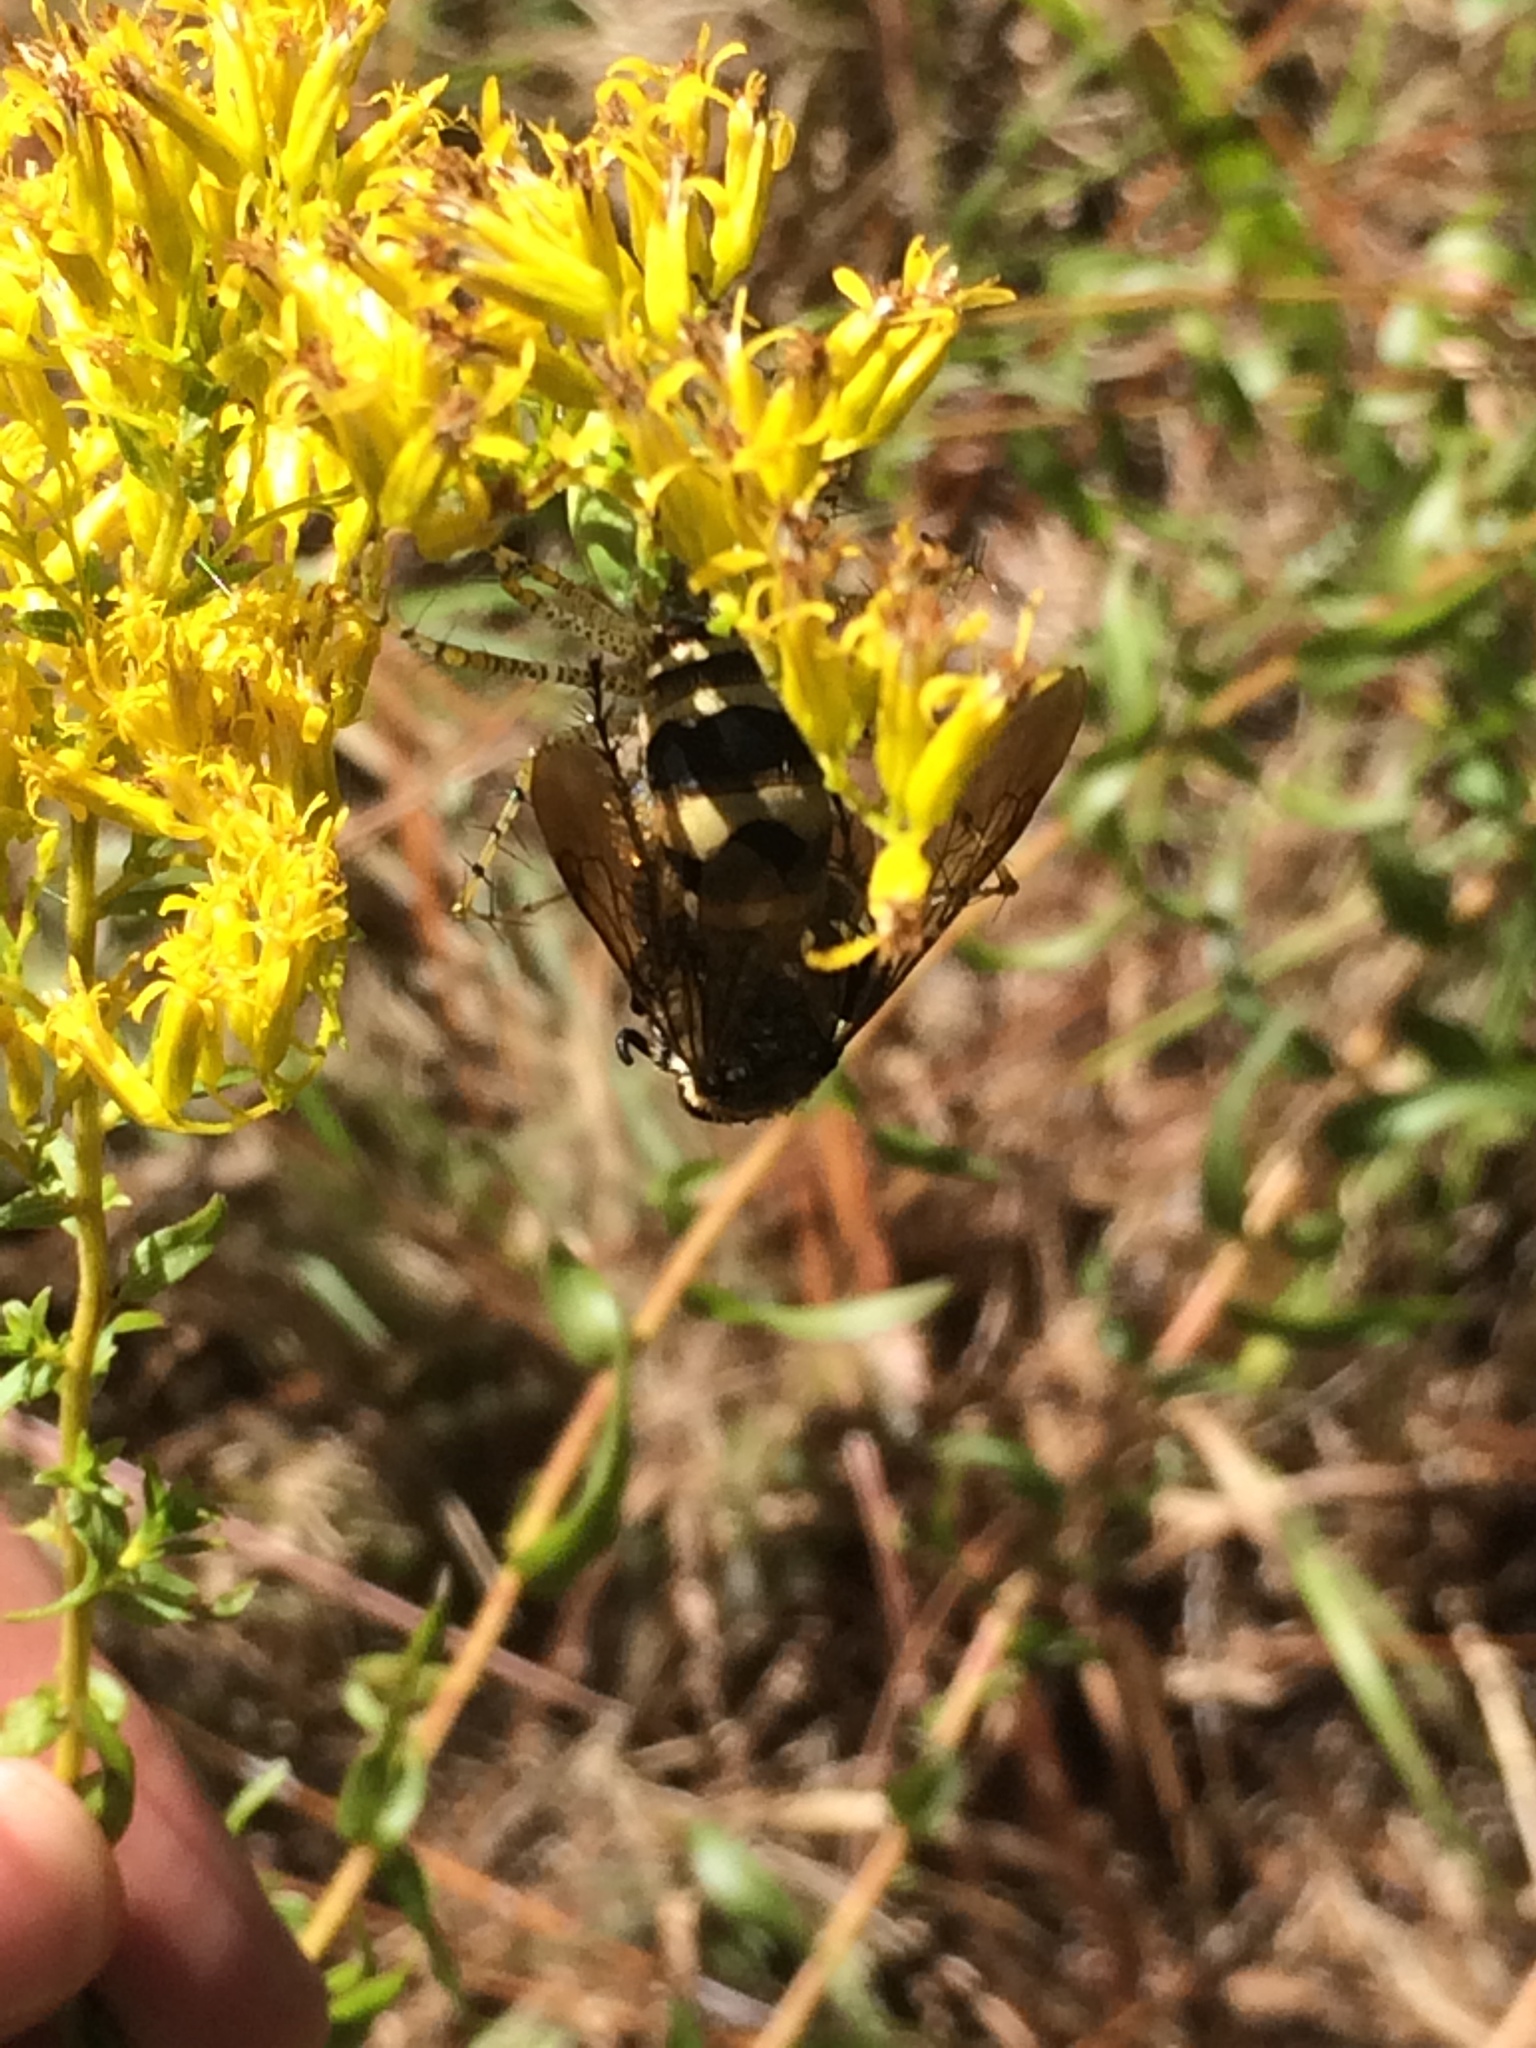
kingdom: Animalia
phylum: Arthropoda
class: Insecta
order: Hymenoptera
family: Scoliidae
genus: Dielis
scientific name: Dielis
